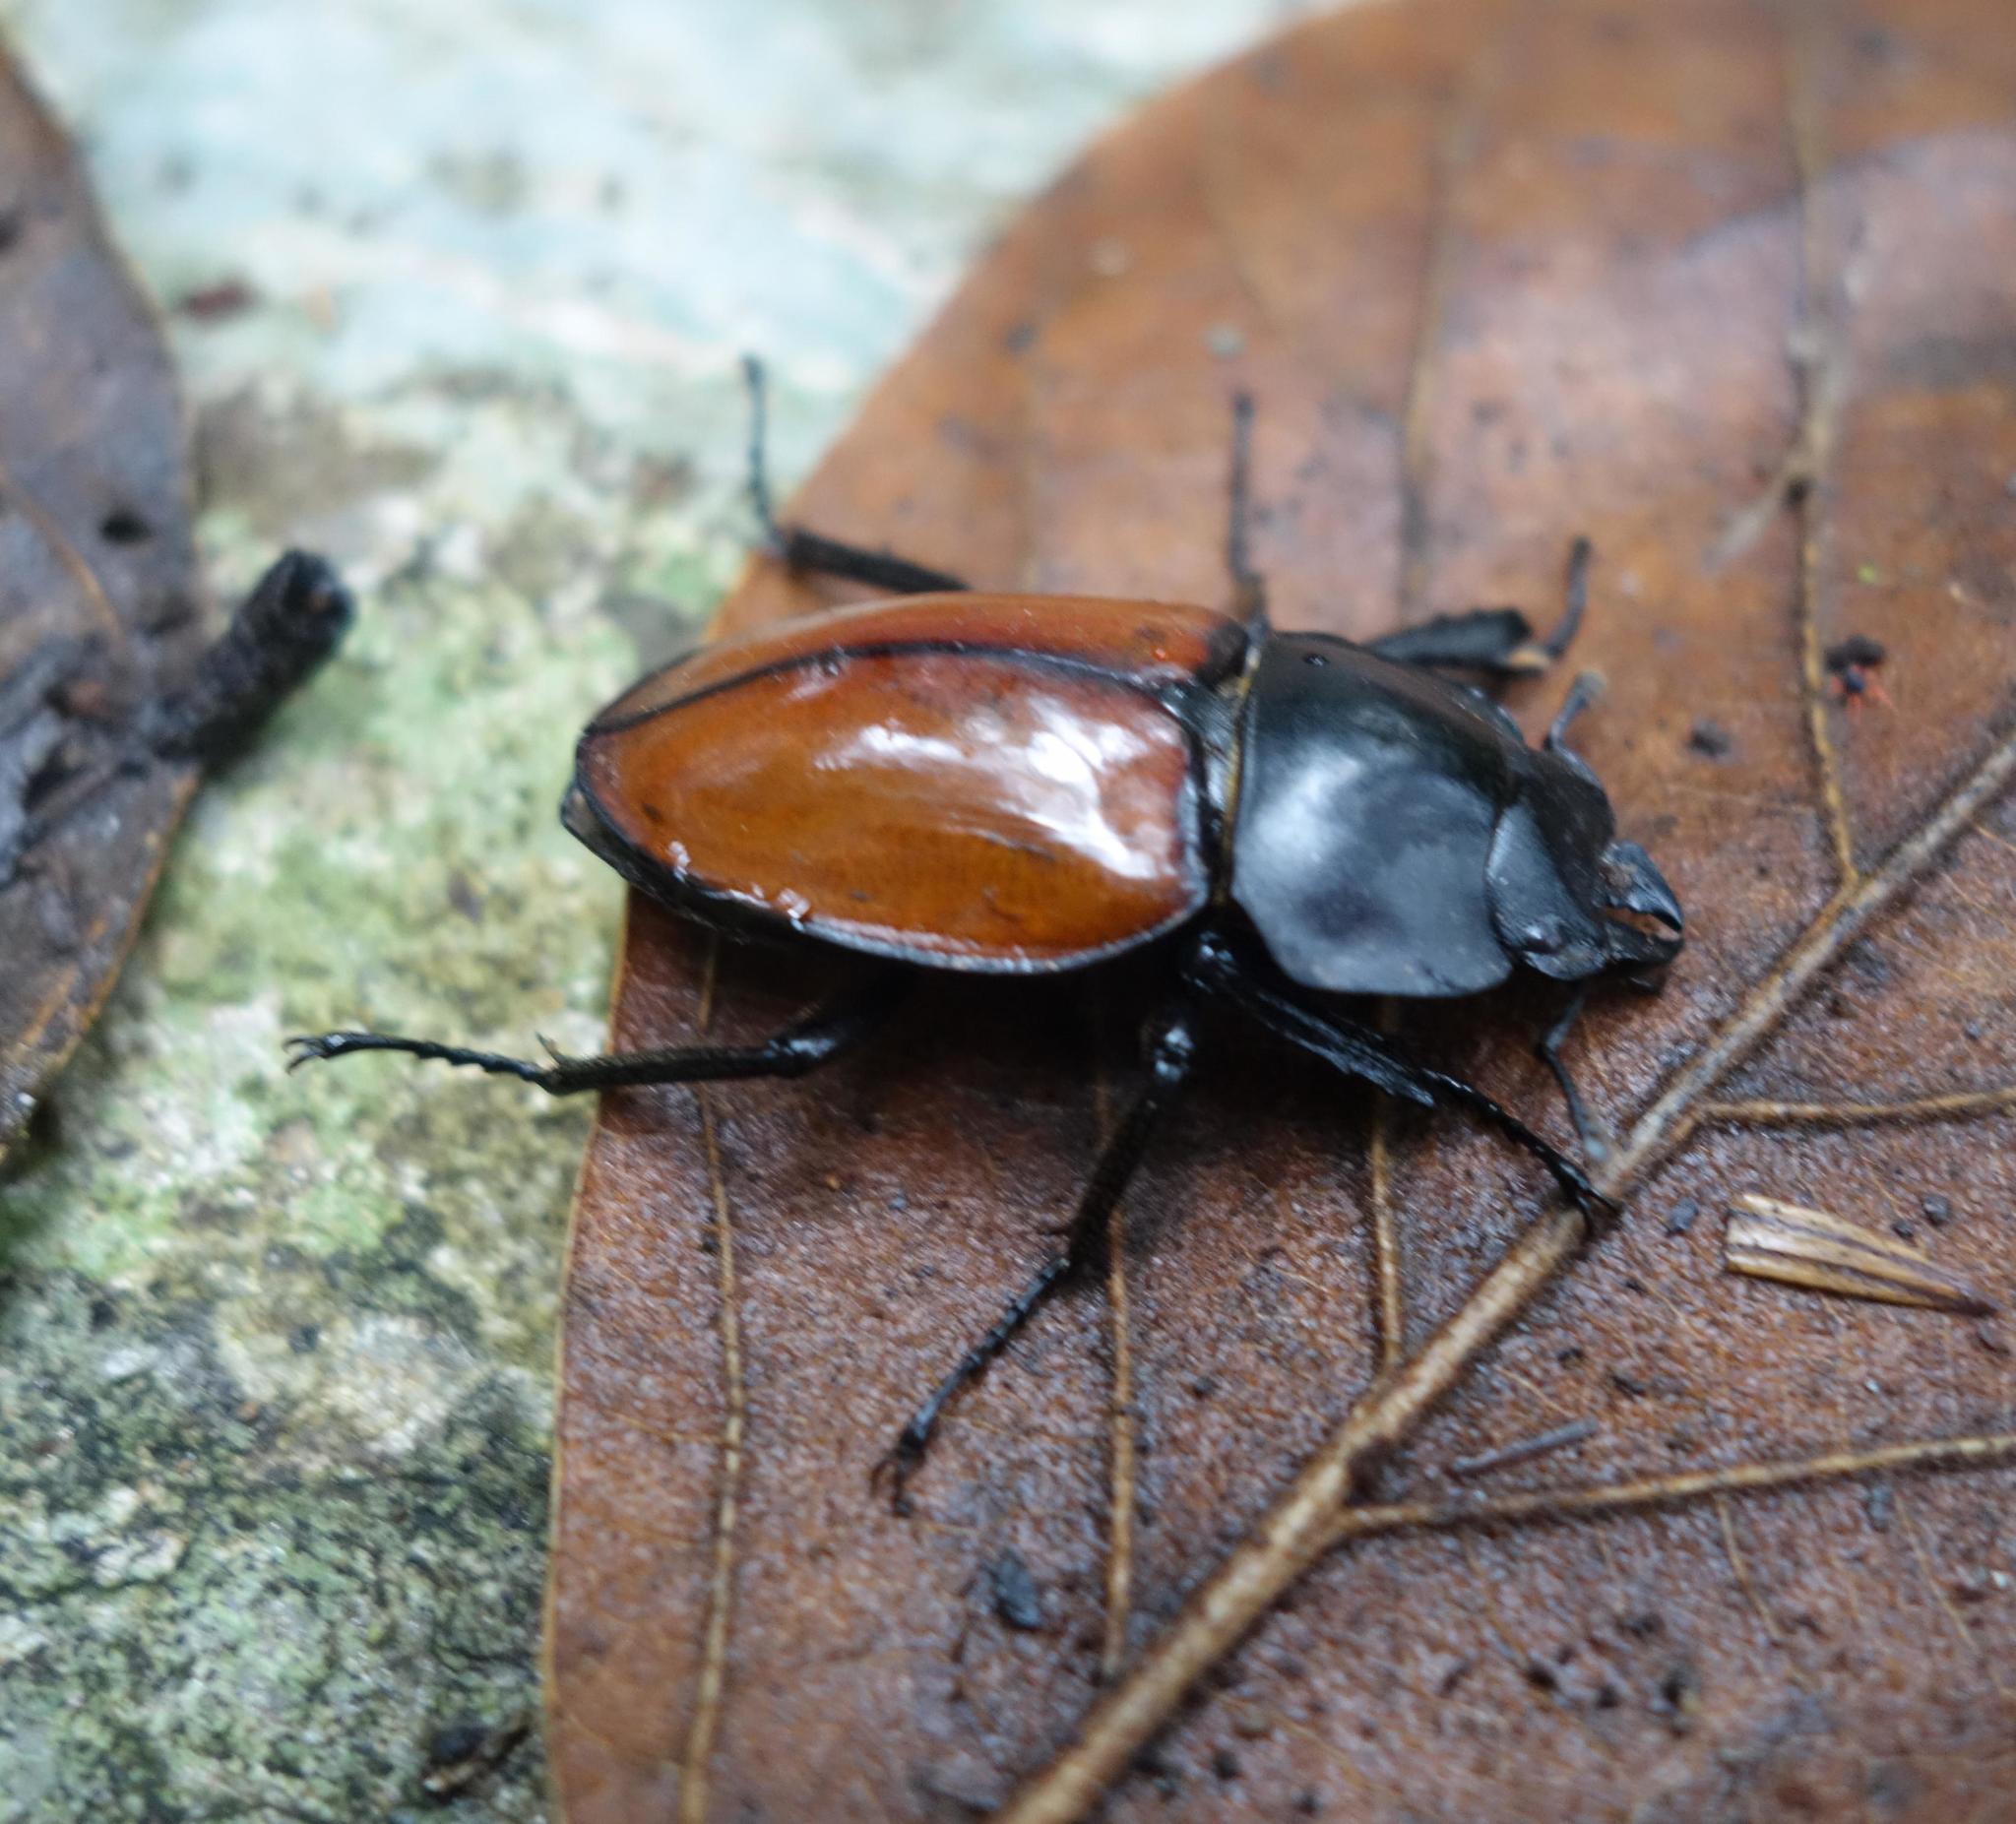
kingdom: Animalia
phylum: Arthropoda
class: Insecta
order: Coleoptera
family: Lucanidae
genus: Neolucanus
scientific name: Neolucanus swinhoei
